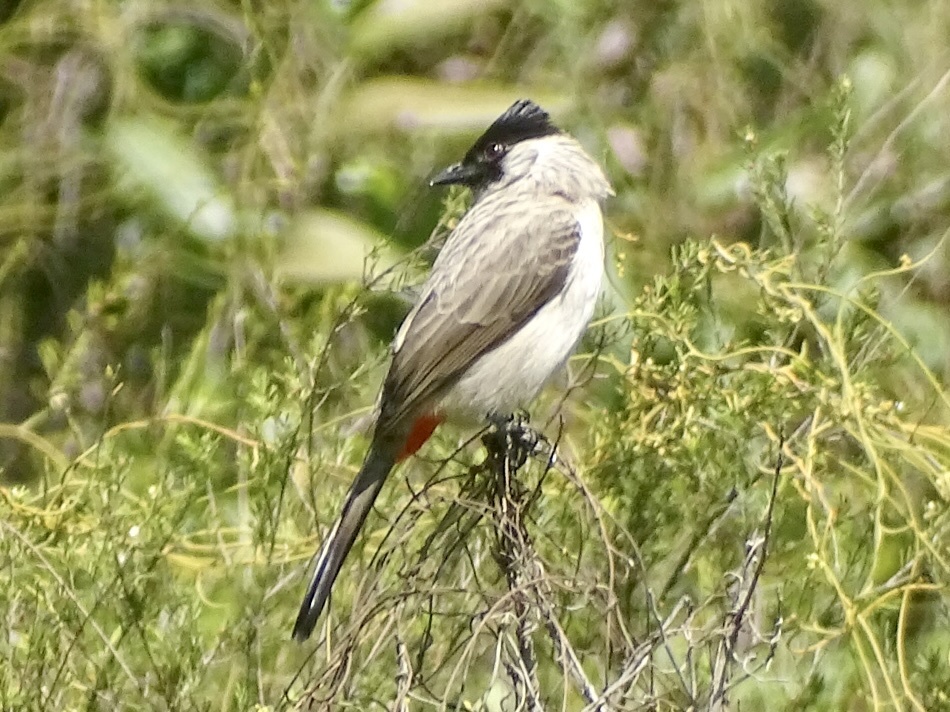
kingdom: Animalia
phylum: Chordata
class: Aves
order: Passeriformes
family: Pycnonotidae
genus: Pycnonotus
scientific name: Pycnonotus aurigaster
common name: Sooty-headed bulbul
